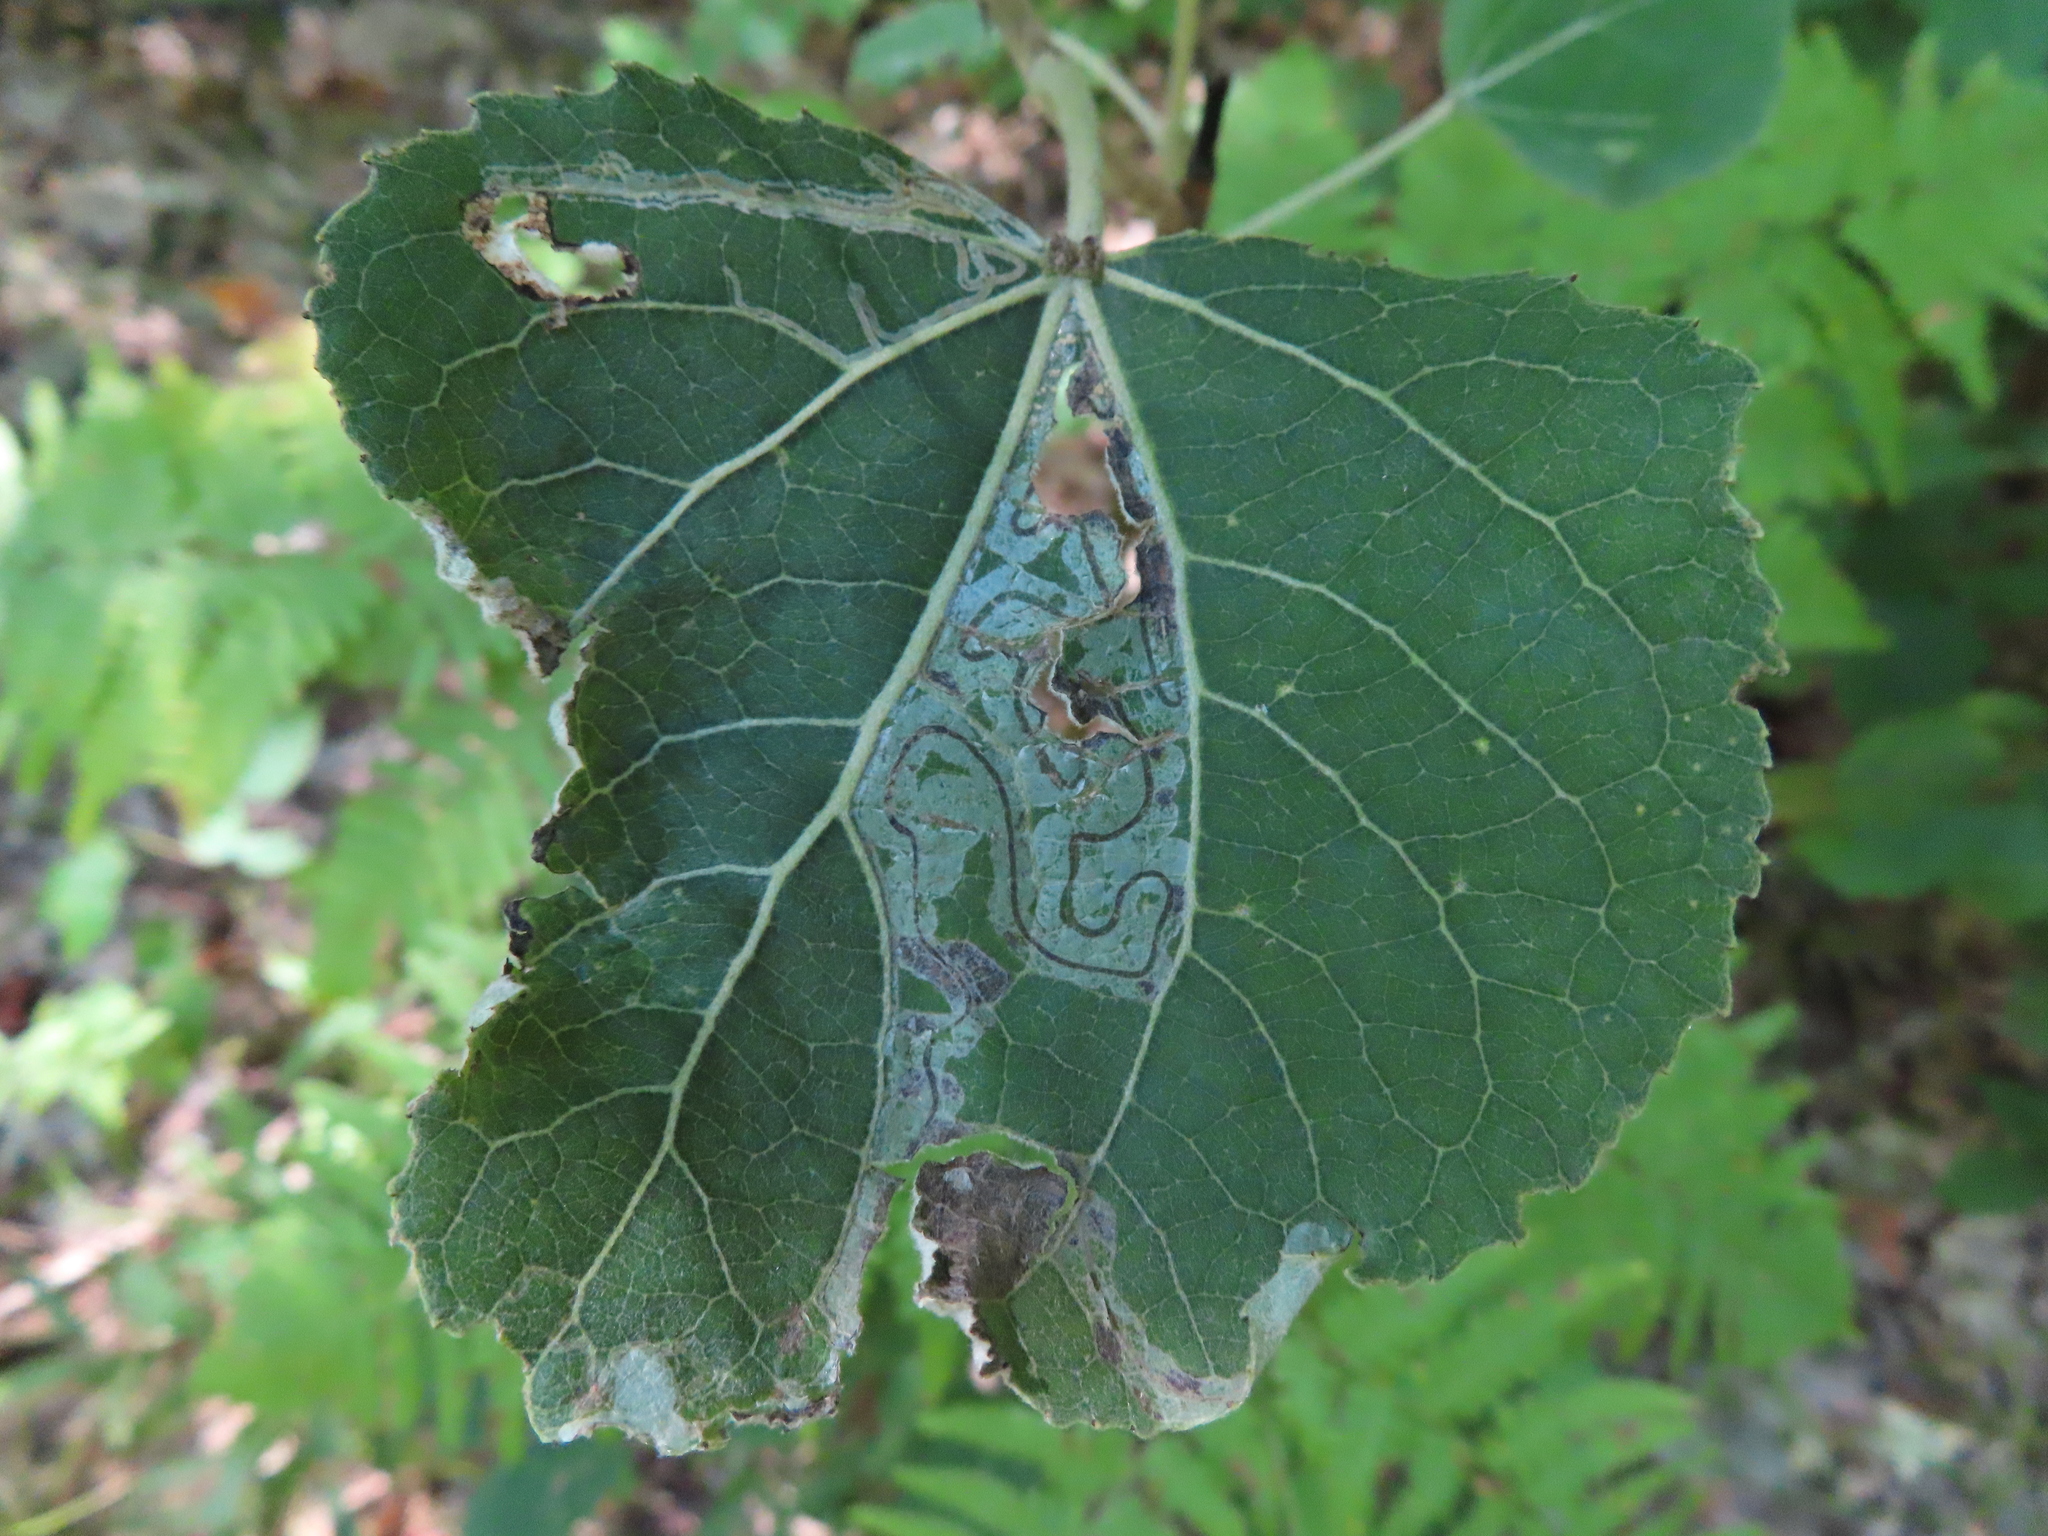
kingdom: Animalia
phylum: Arthropoda
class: Insecta
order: Lepidoptera
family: Gracillariidae
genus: Phyllocnistis
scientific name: Phyllocnistis populiella
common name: Aspen serpentine leafminer moth
